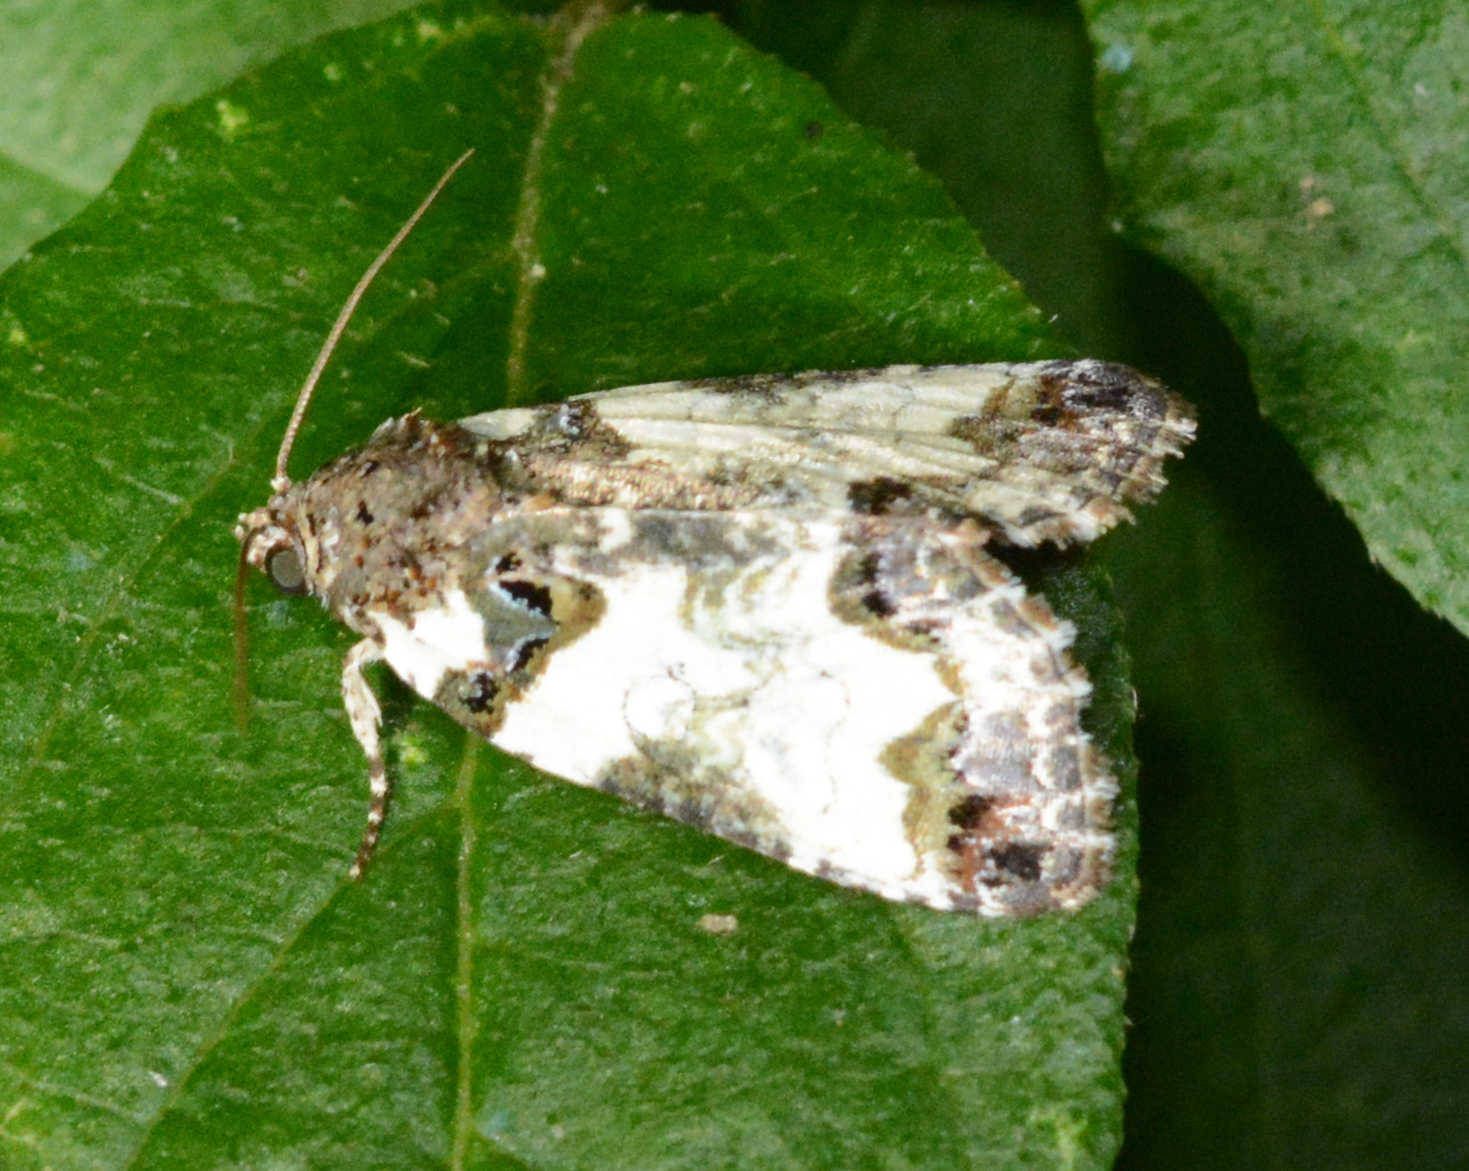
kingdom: Animalia
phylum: Arthropoda
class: Insecta
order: Lepidoptera
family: Noctuidae
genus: Cerma
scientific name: Cerma cerintha
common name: Tufted bird-dropping moth
